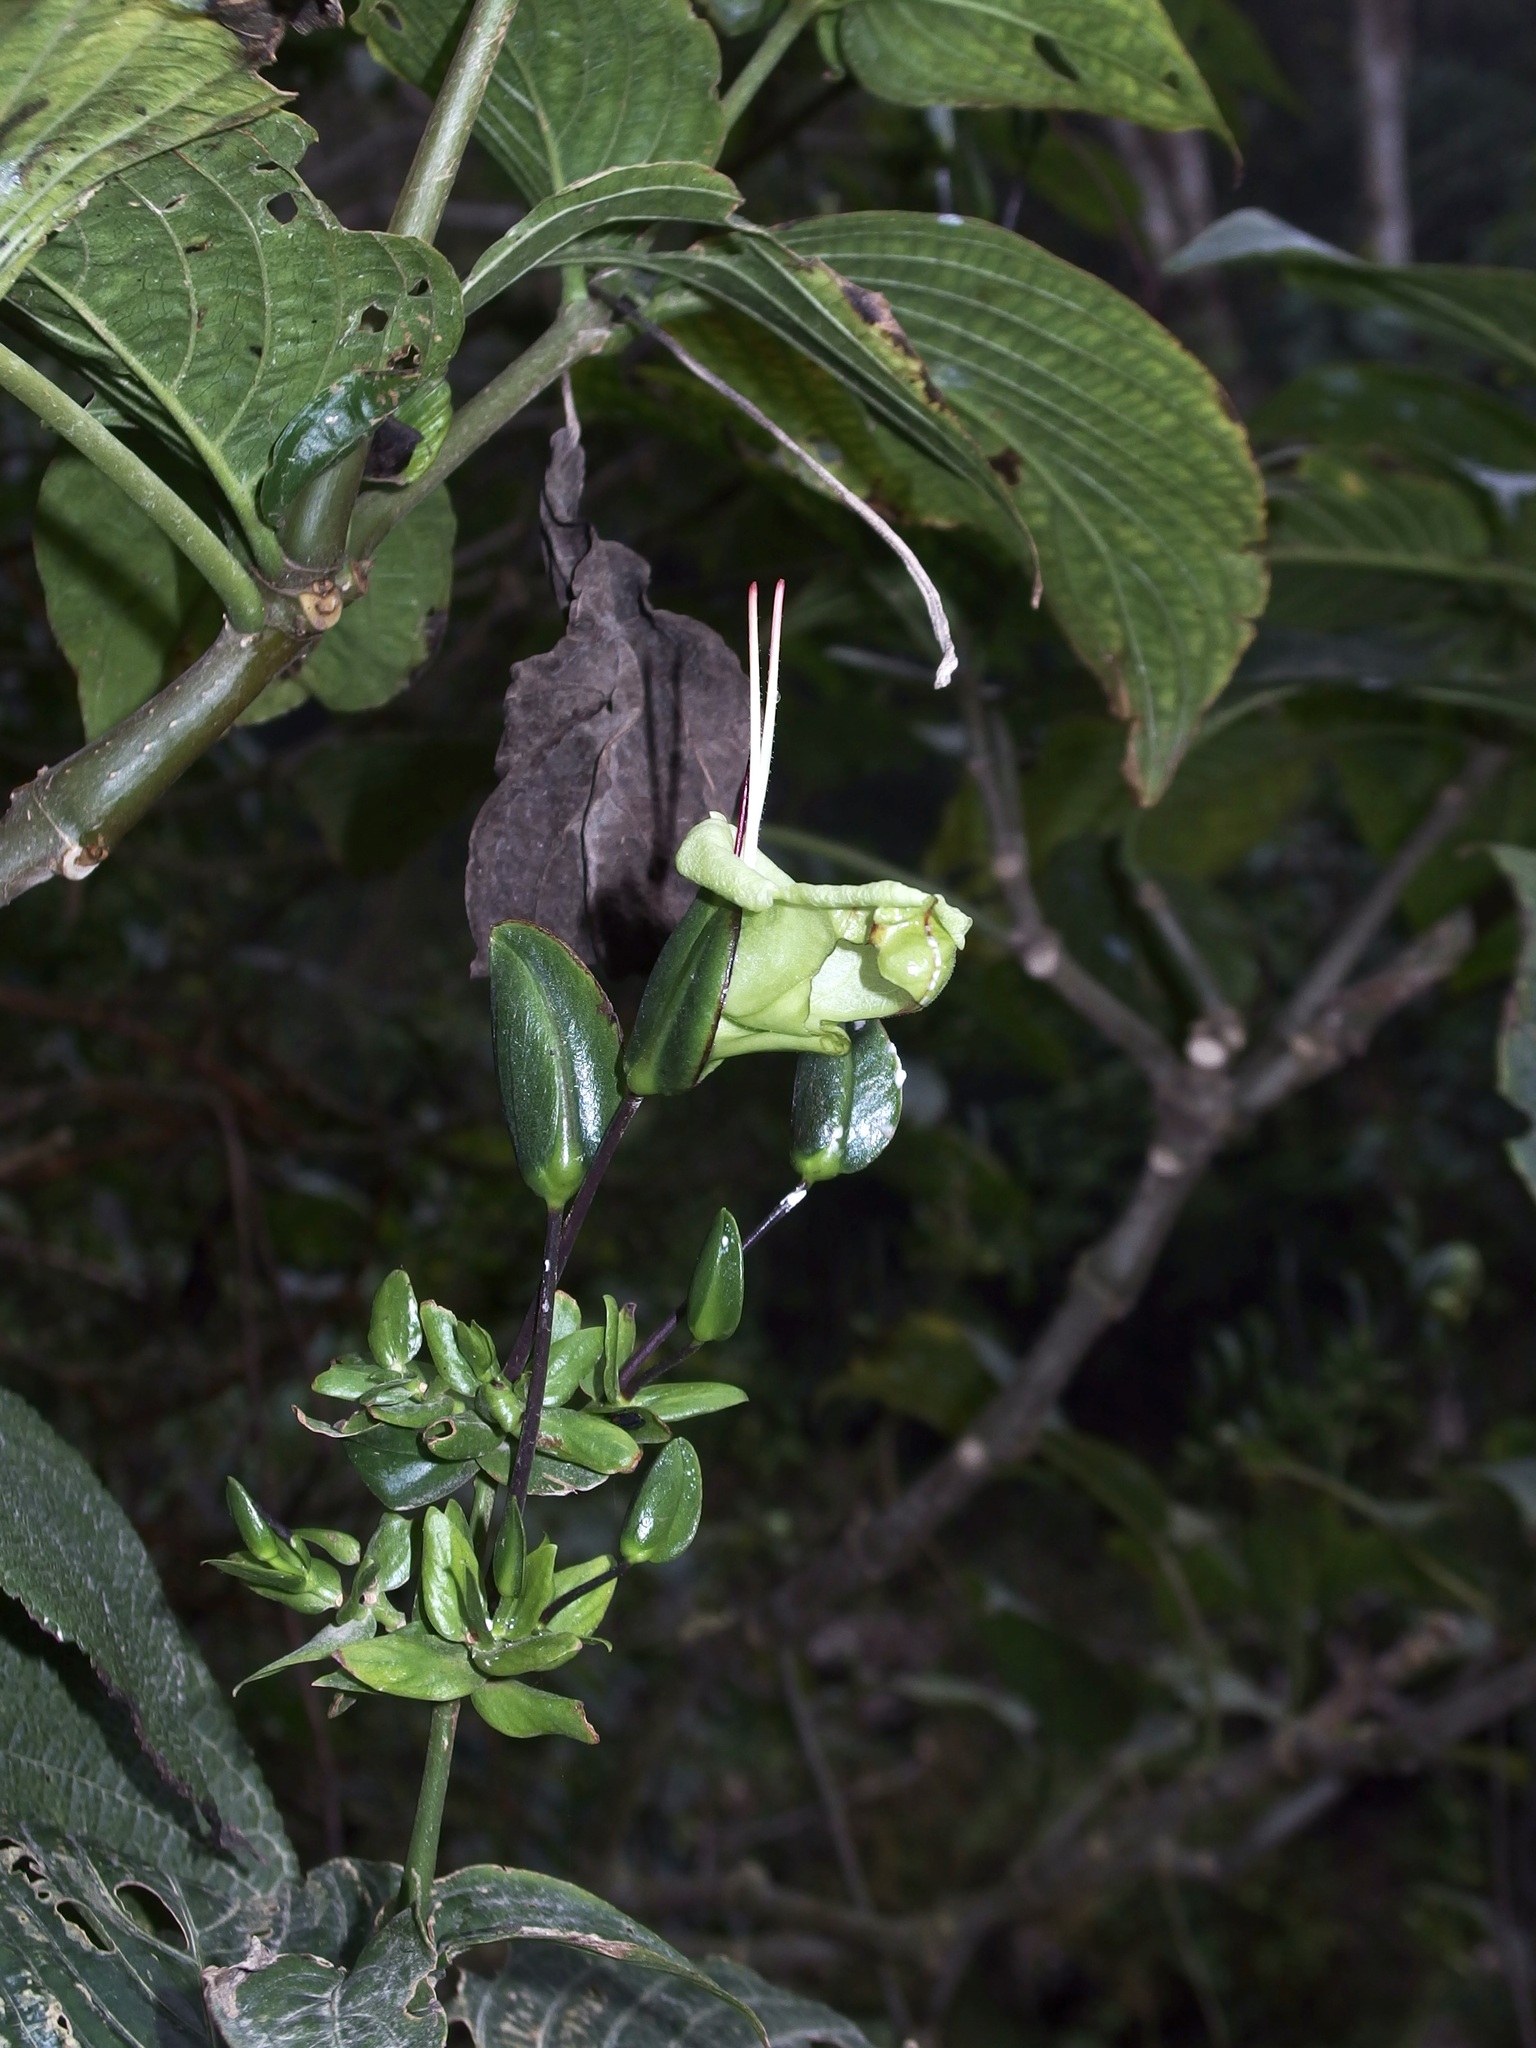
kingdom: Plantae
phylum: Tracheophyta
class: Magnoliopsida
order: Lamiales
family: Acanthaceae
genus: Louteridium
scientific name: Louteridium donnell-smithii
